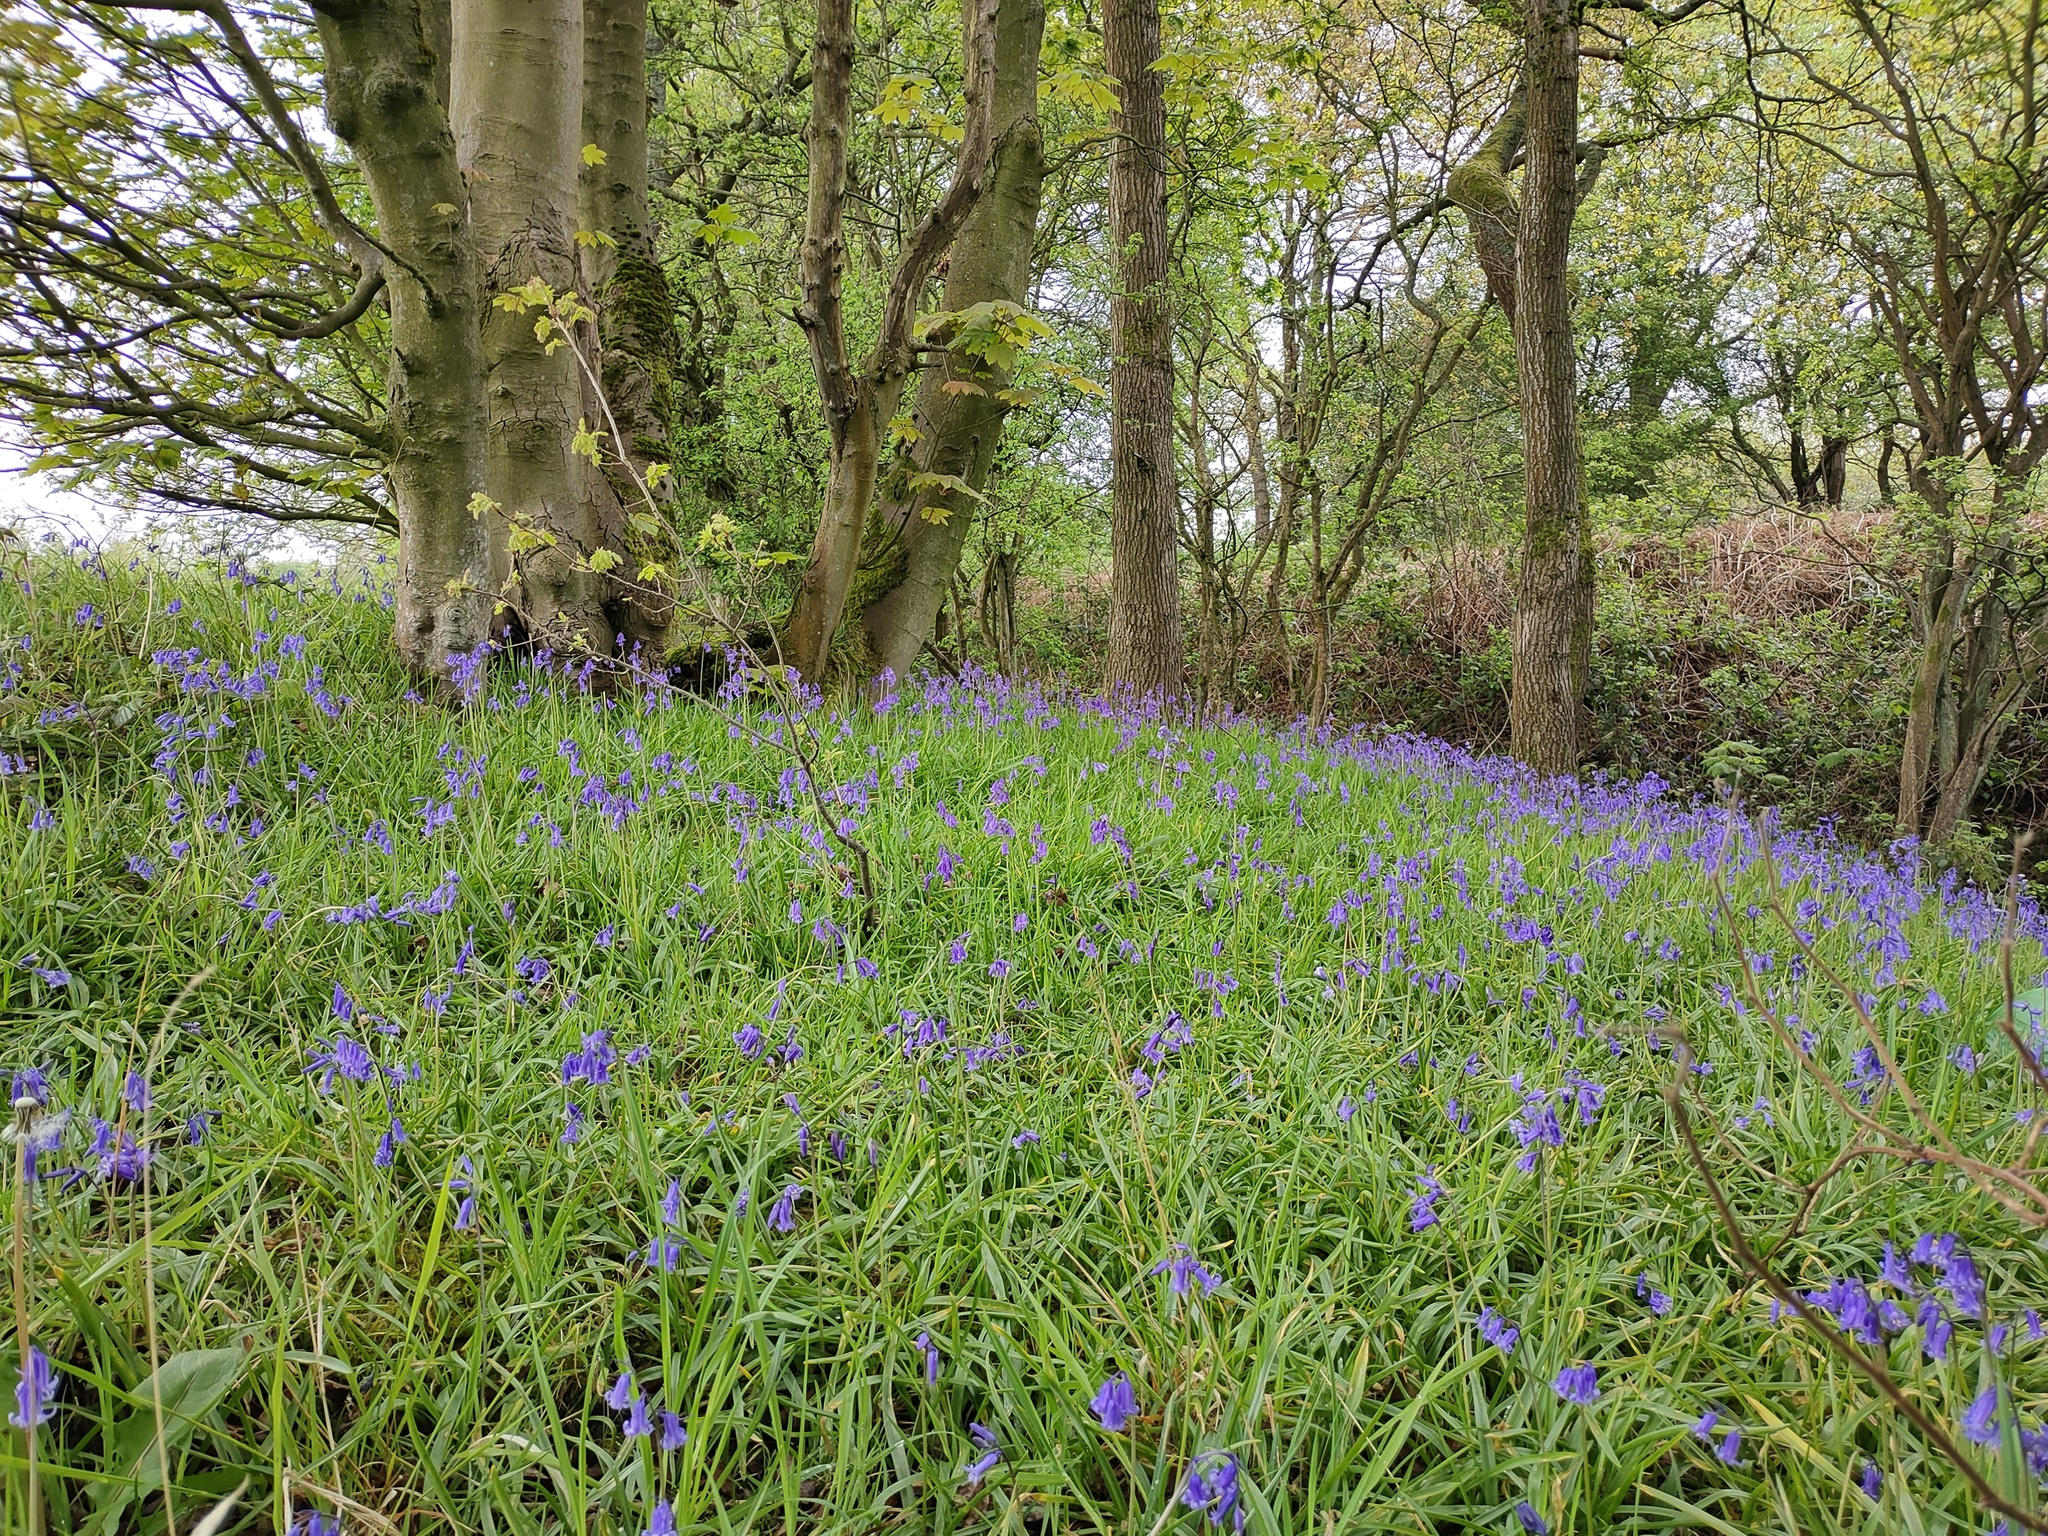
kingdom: Plantae
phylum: Tracheophyta
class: Liliopsida
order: Asparagales
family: Asparagaceae
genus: Hyacinthoides
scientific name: Hyacinthoides non-scripta
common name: Bluebell
